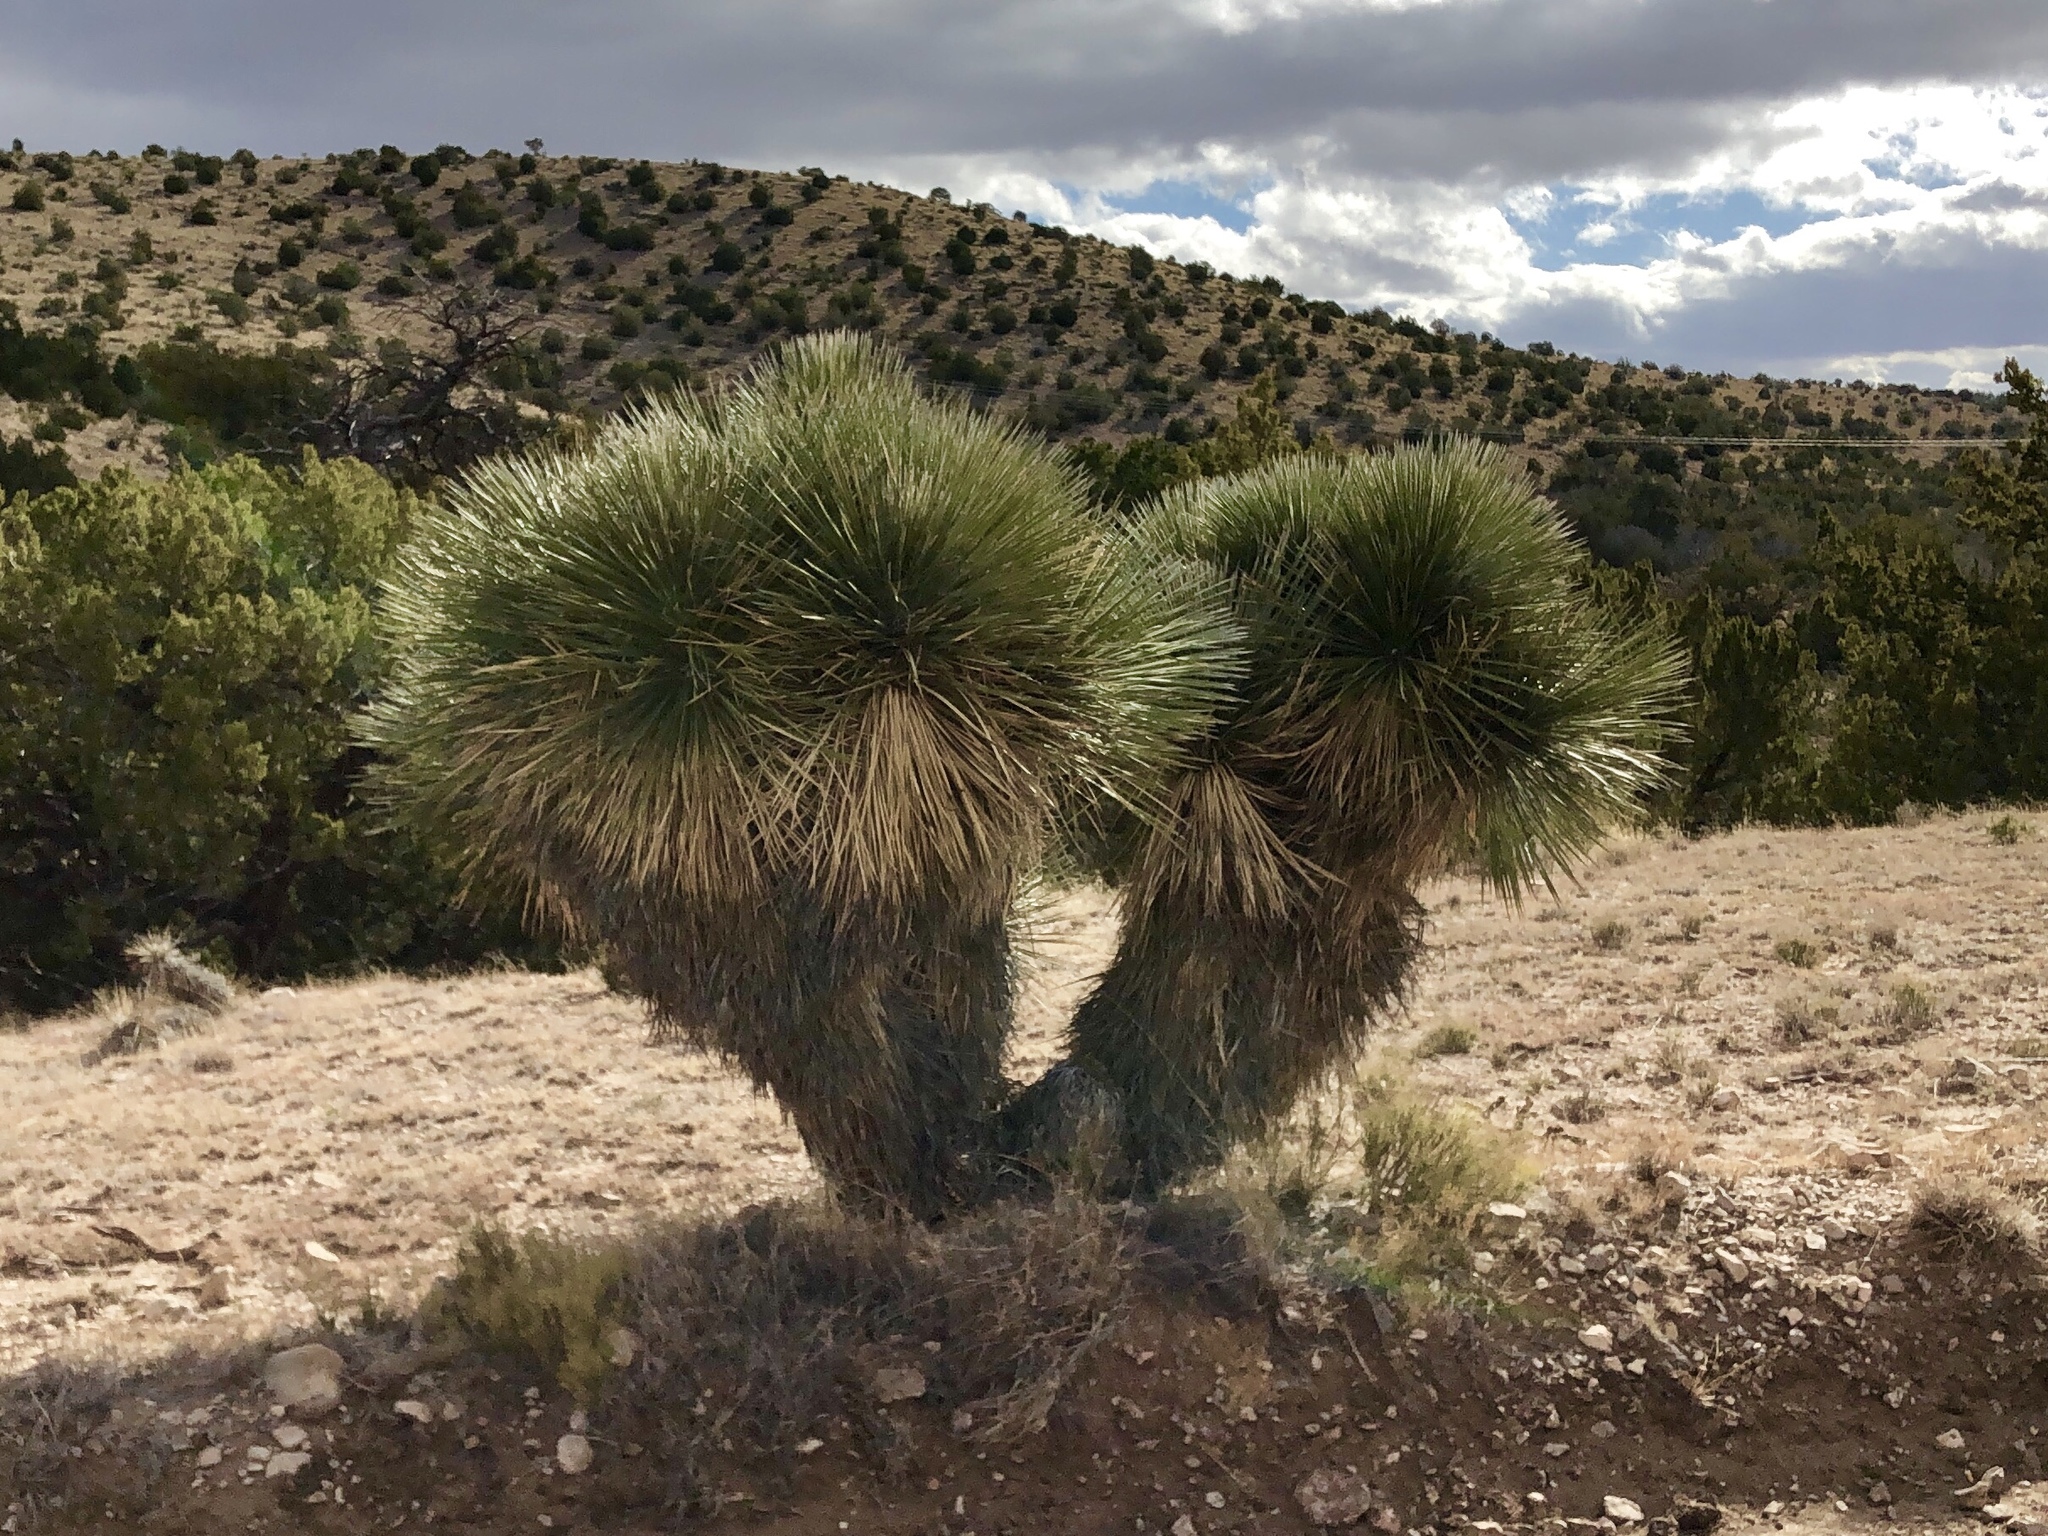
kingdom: Plantae
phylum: Tracheophyta
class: Liliopsida
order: Asparagales
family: Asparagaceae
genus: Yucca
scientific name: Yucca elata
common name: Palmella
